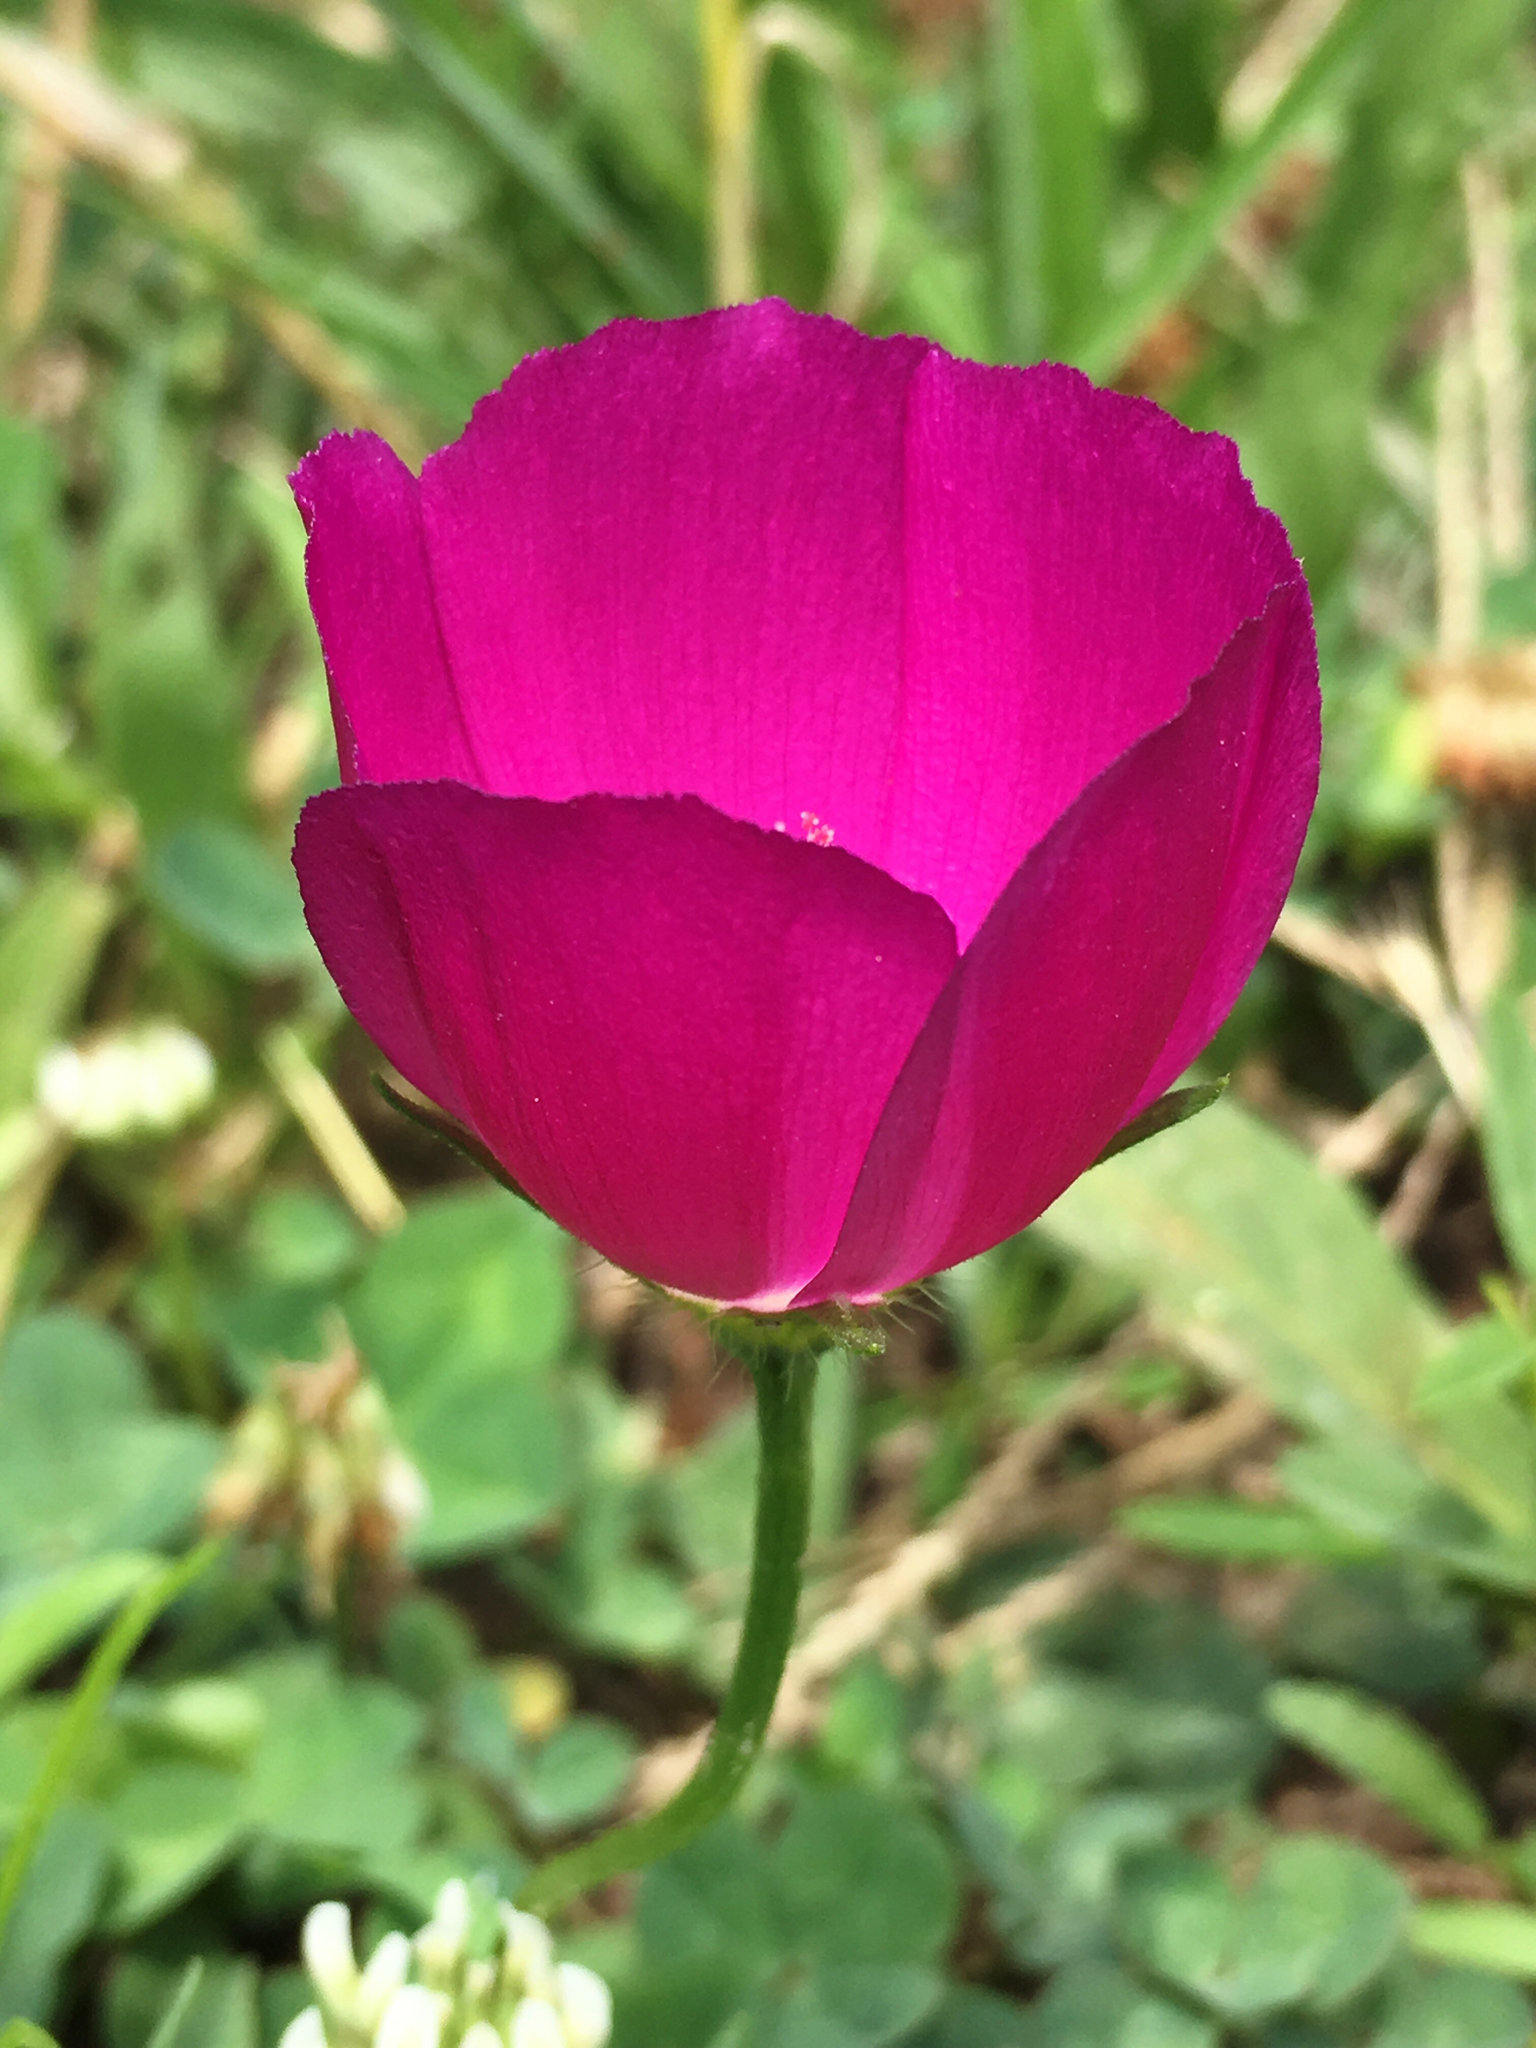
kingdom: Plantae
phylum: Tracheophyta
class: Magnoliopsida
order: Malvales
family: Malvaceae
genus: Callirhoe
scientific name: Callirhoe involucrata
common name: Purple poppy-mallow
